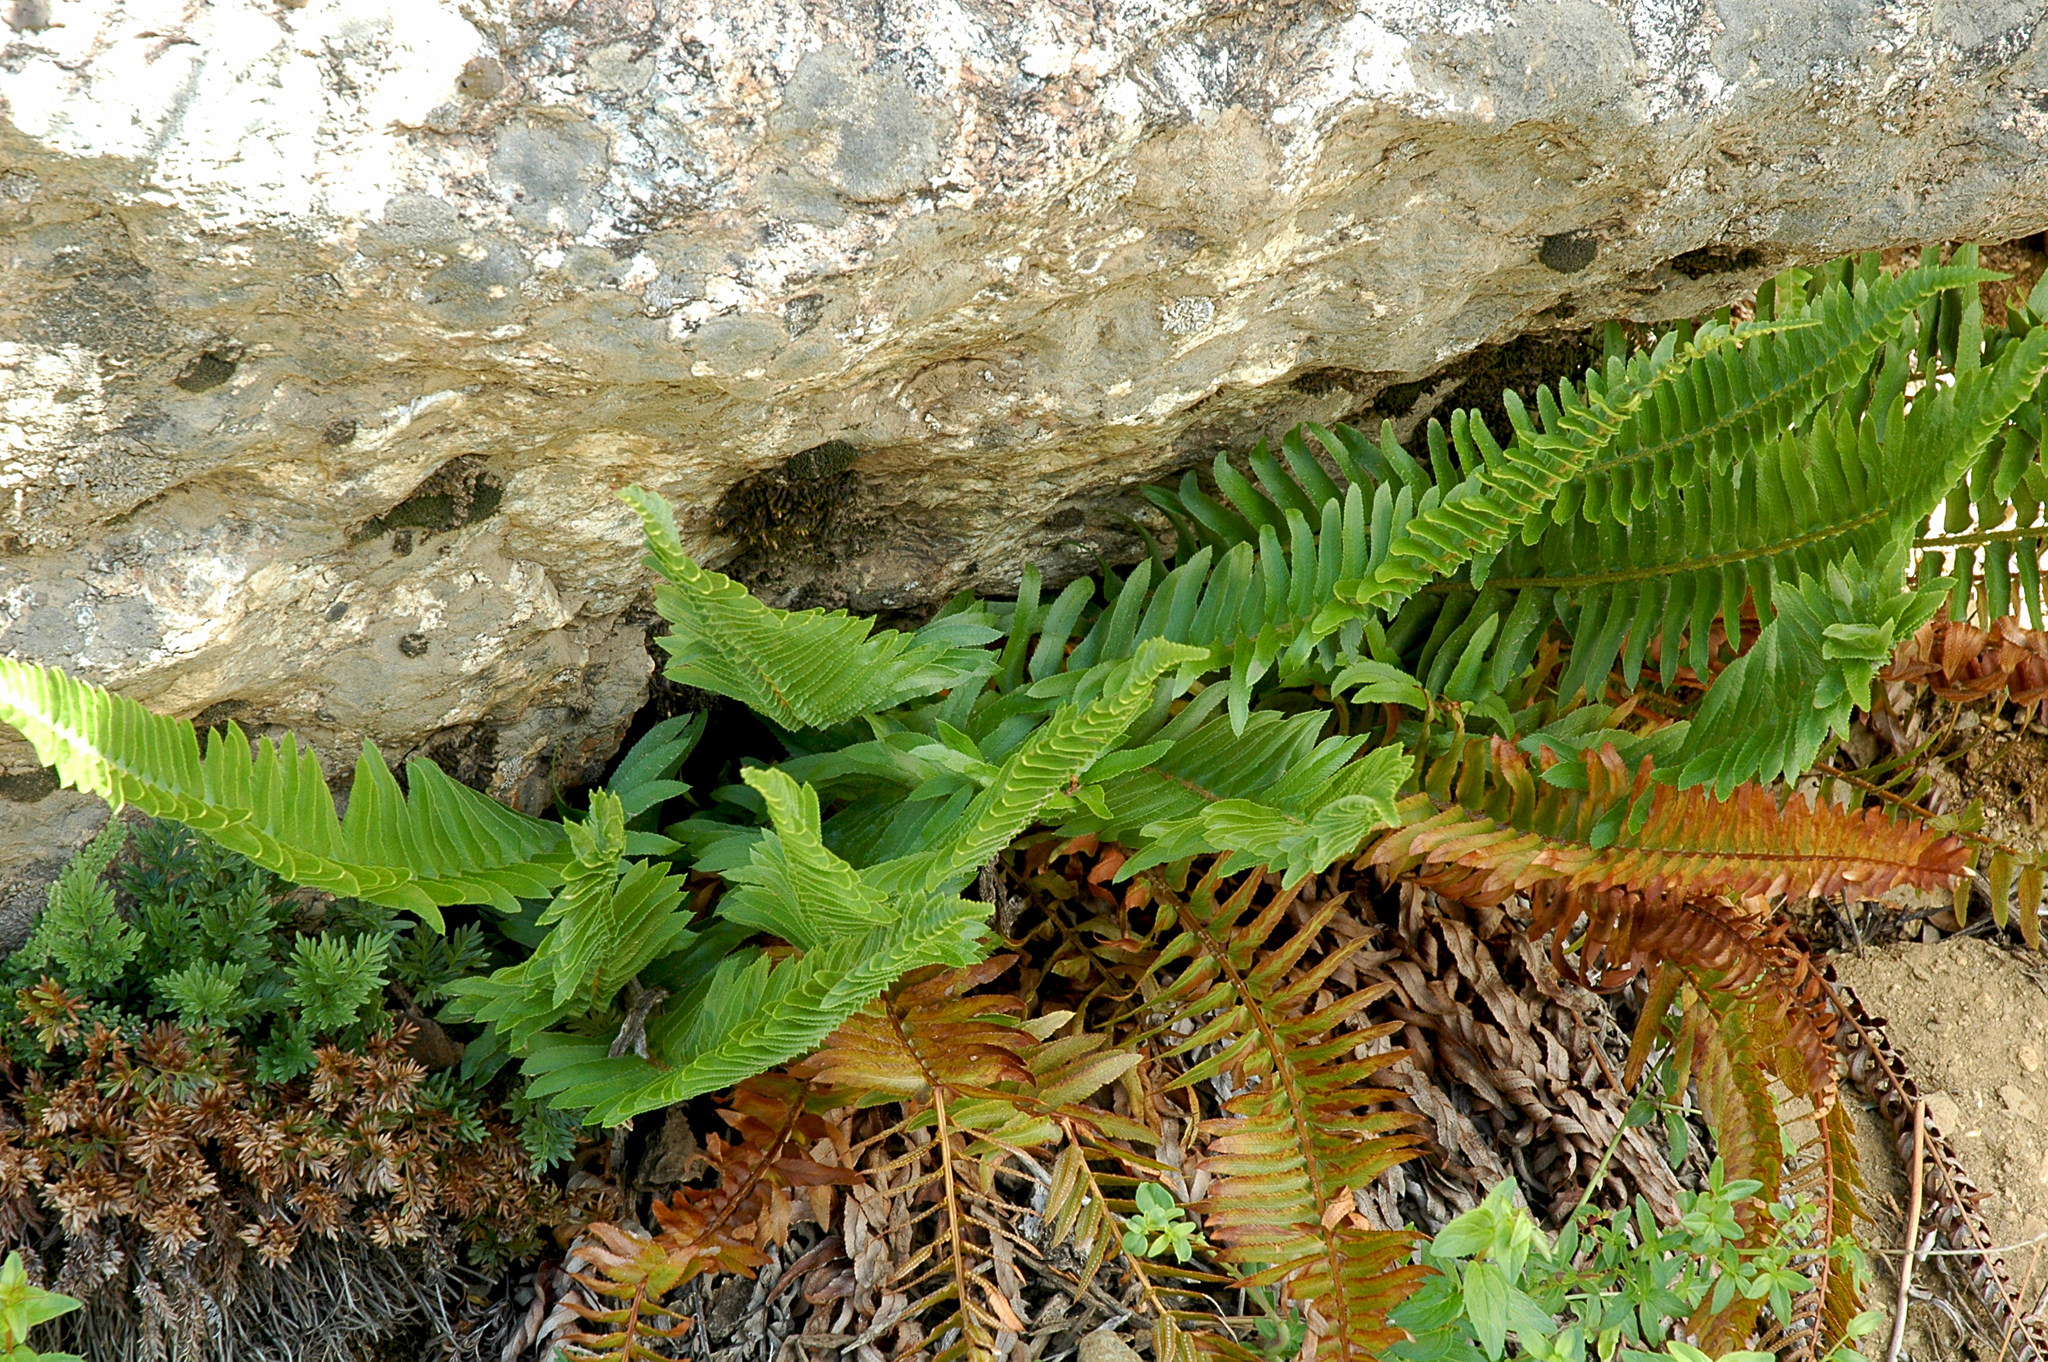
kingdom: Plantae
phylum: Tracheophyta
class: Polypodiopsida
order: Polypodiales
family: Dryopteridaceae
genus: Polystichum
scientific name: Polystichum imbricans
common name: Dwarf western sword fern
